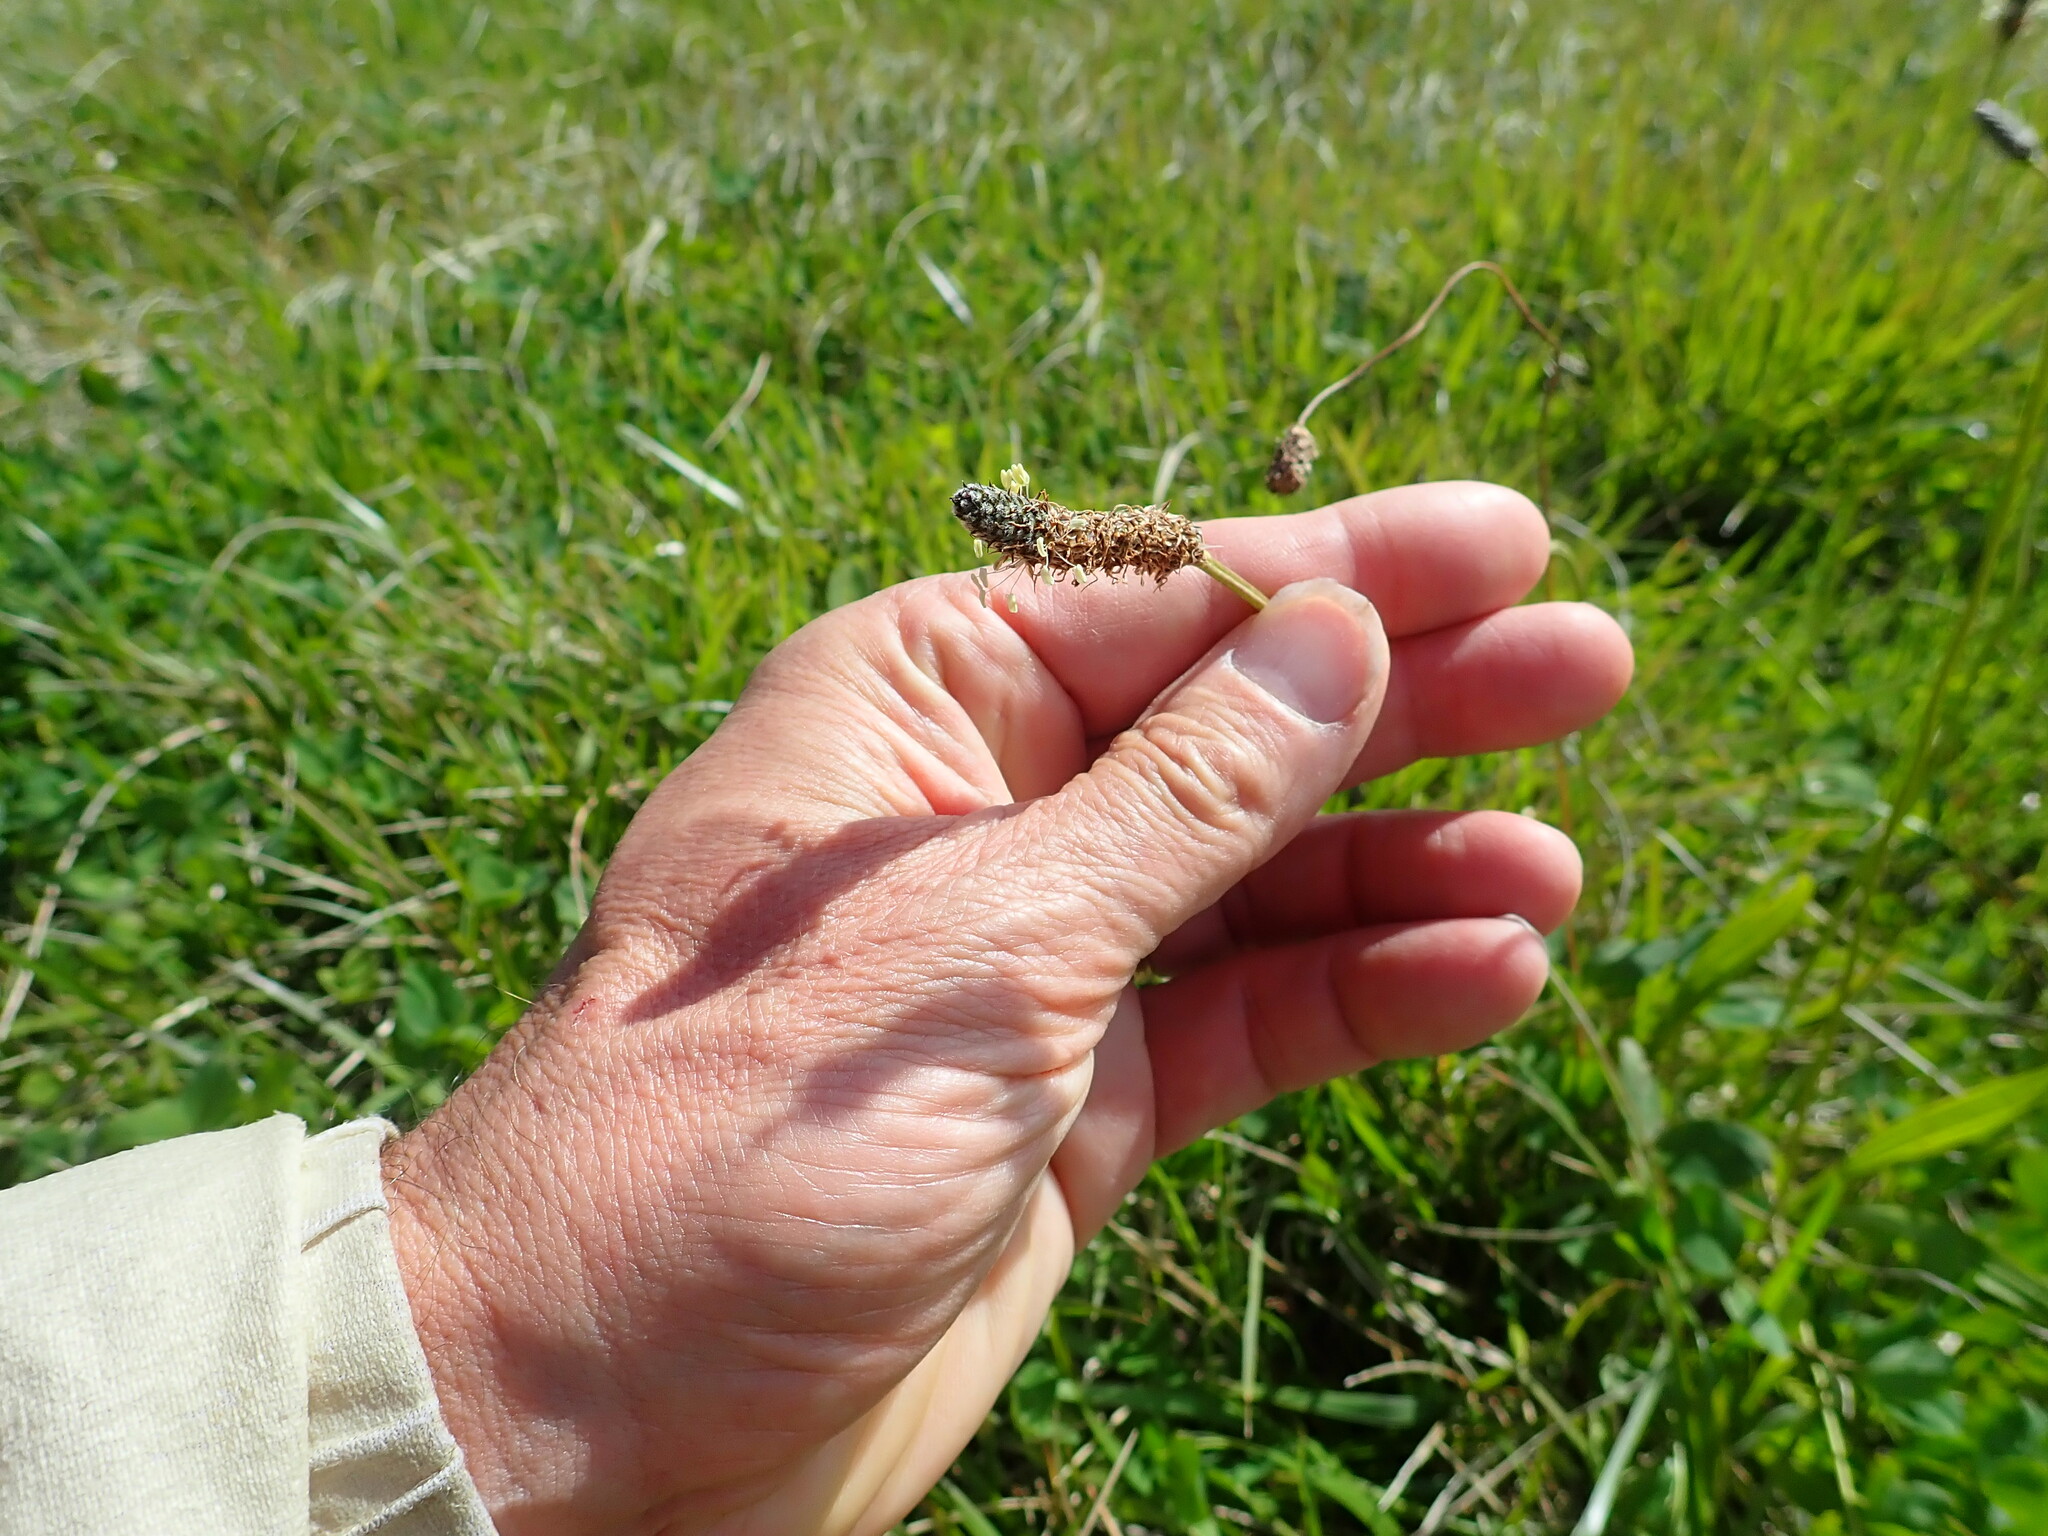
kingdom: Plantae
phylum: Tracheophyta
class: Magnoliopsida
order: Lamiales
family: Plantaginaceae
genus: Plantago
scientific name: Plantago lanceolata
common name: Ribwort plantain
